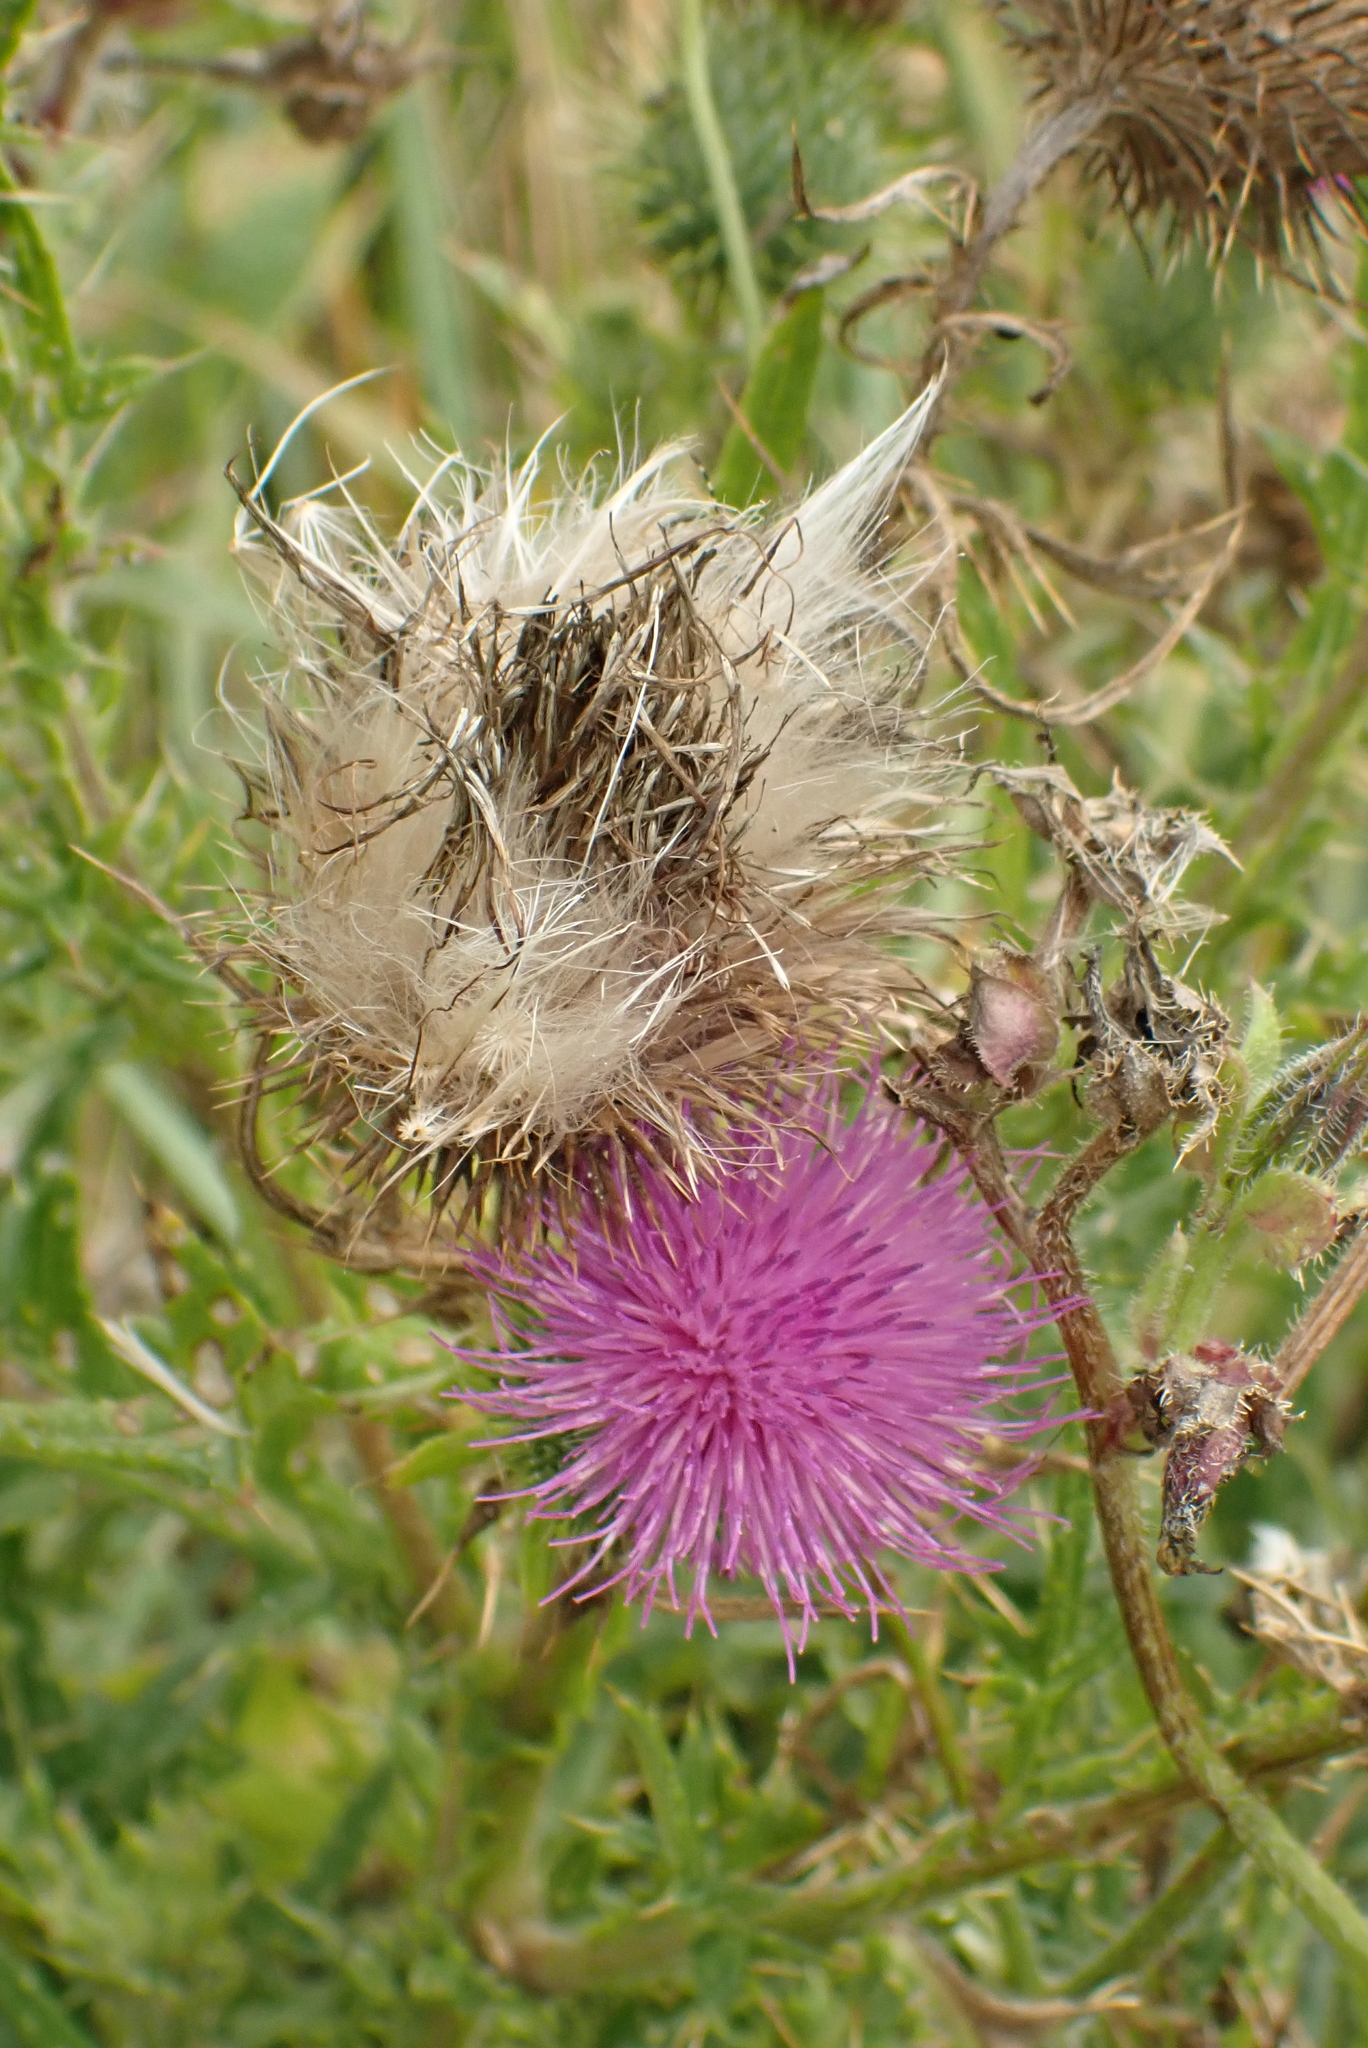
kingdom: Plantae
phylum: Tracheophyta
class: Magnoliopsida
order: Asterales
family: Asteraceae
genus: Cirsium
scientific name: Cirsium vulgare
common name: Bull thistle
